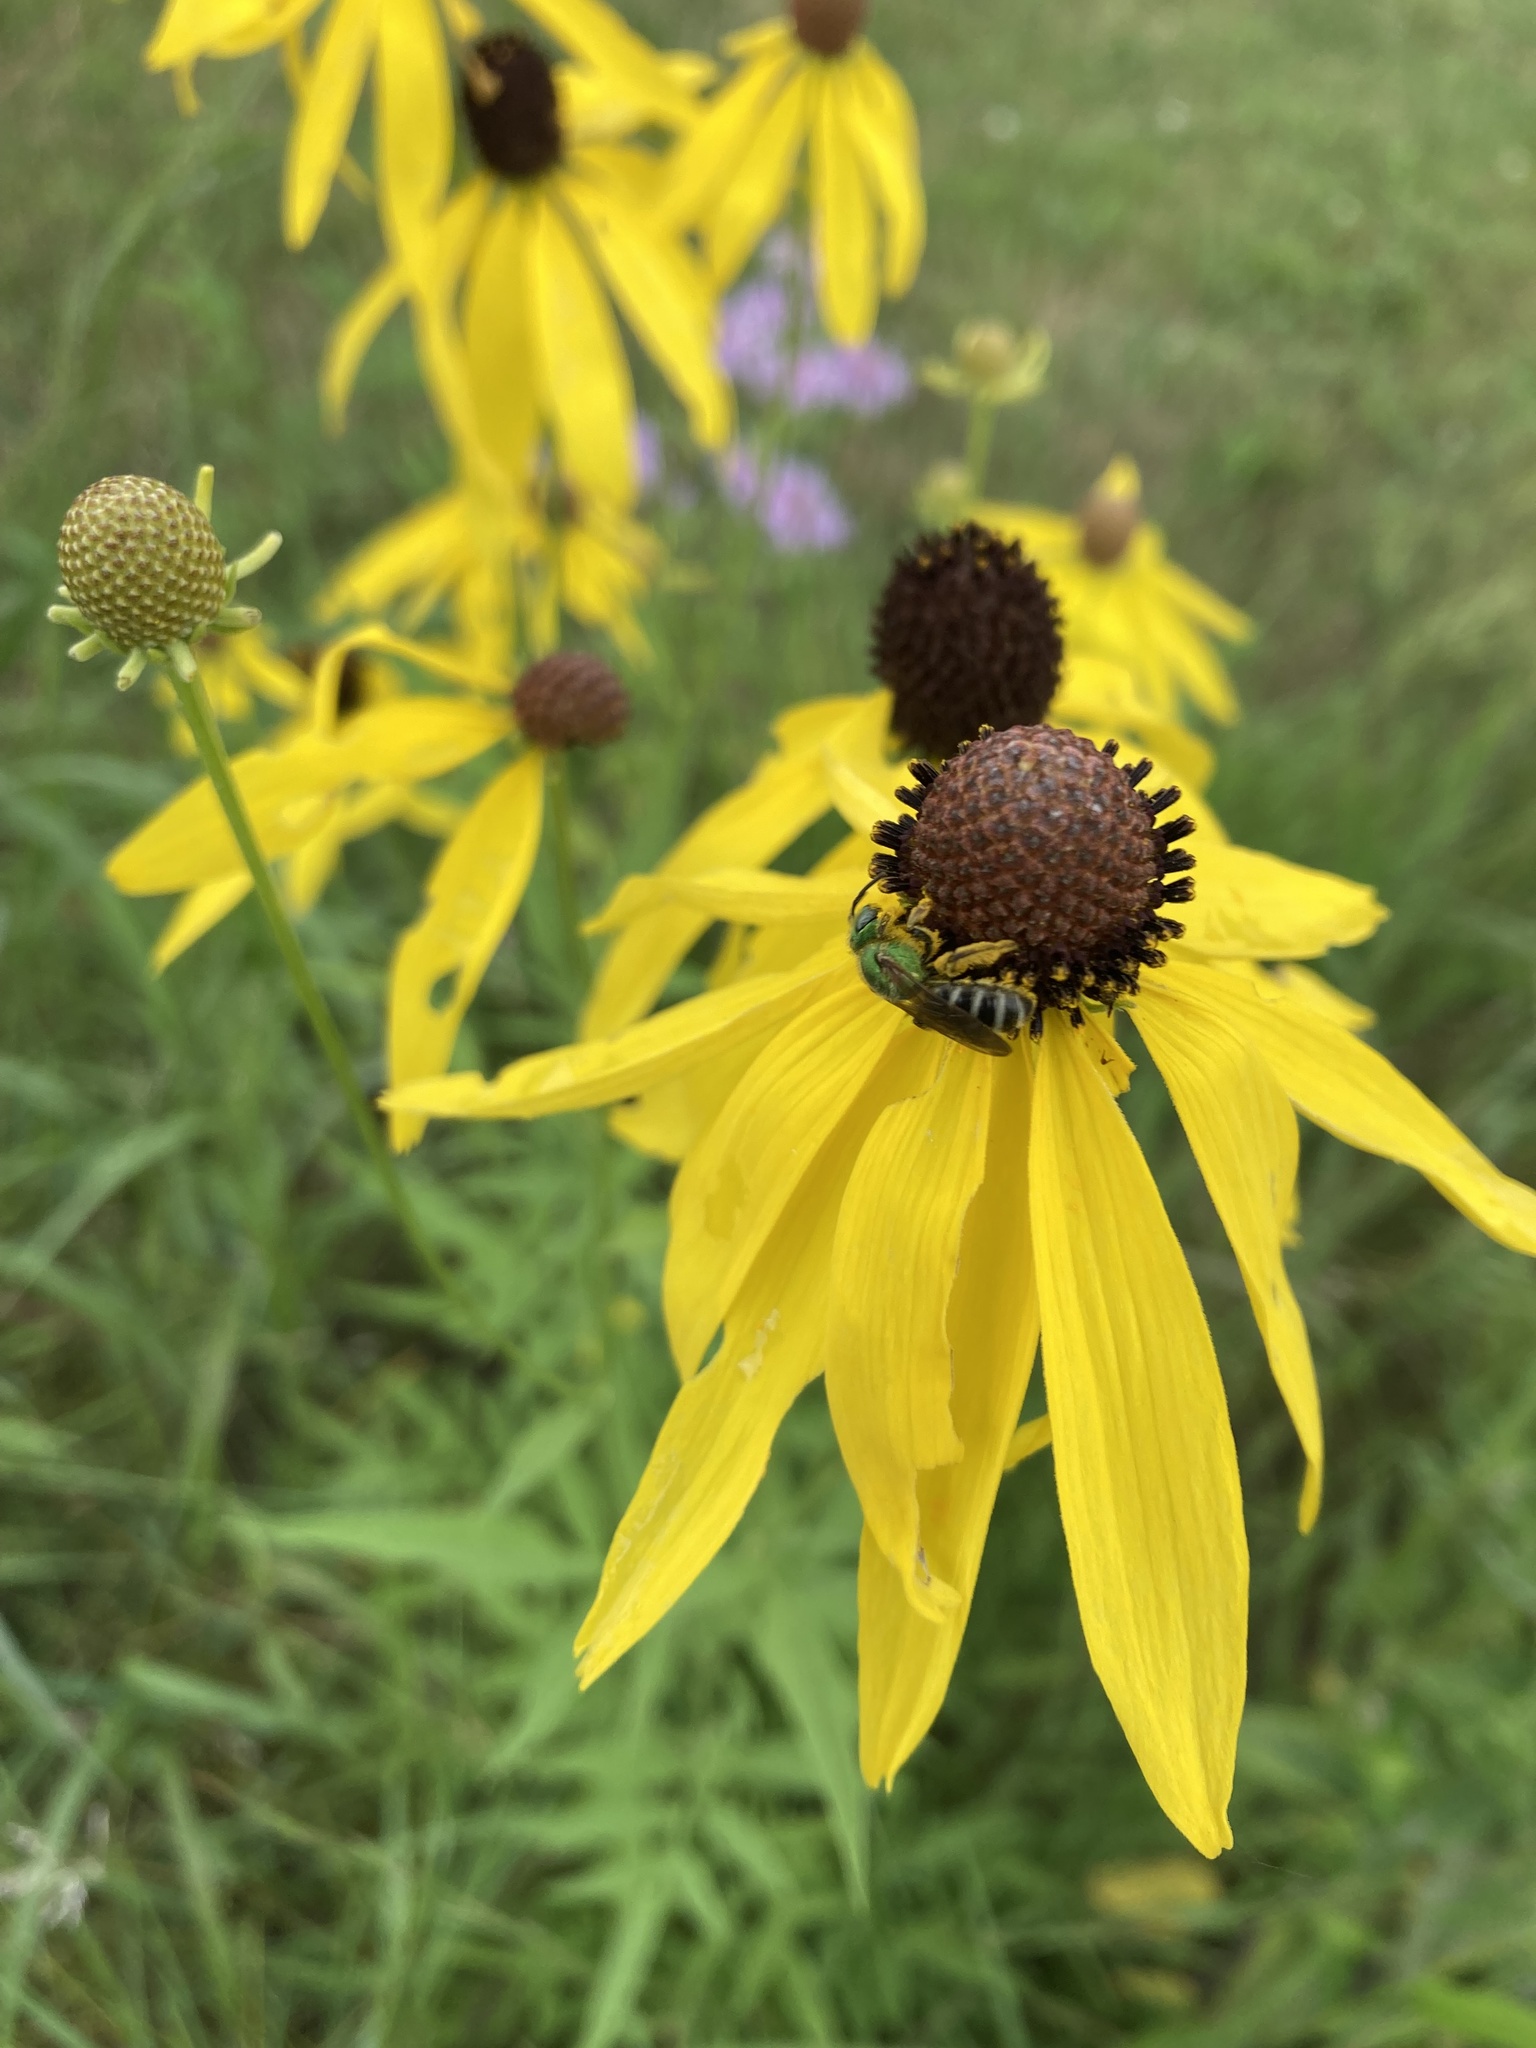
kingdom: Animalia
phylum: Arthropoda
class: Insecta
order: Hymenoptera
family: Halictidae
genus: Agapostemon
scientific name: Agapostemon virescens
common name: Bicolored striped sweat bee
